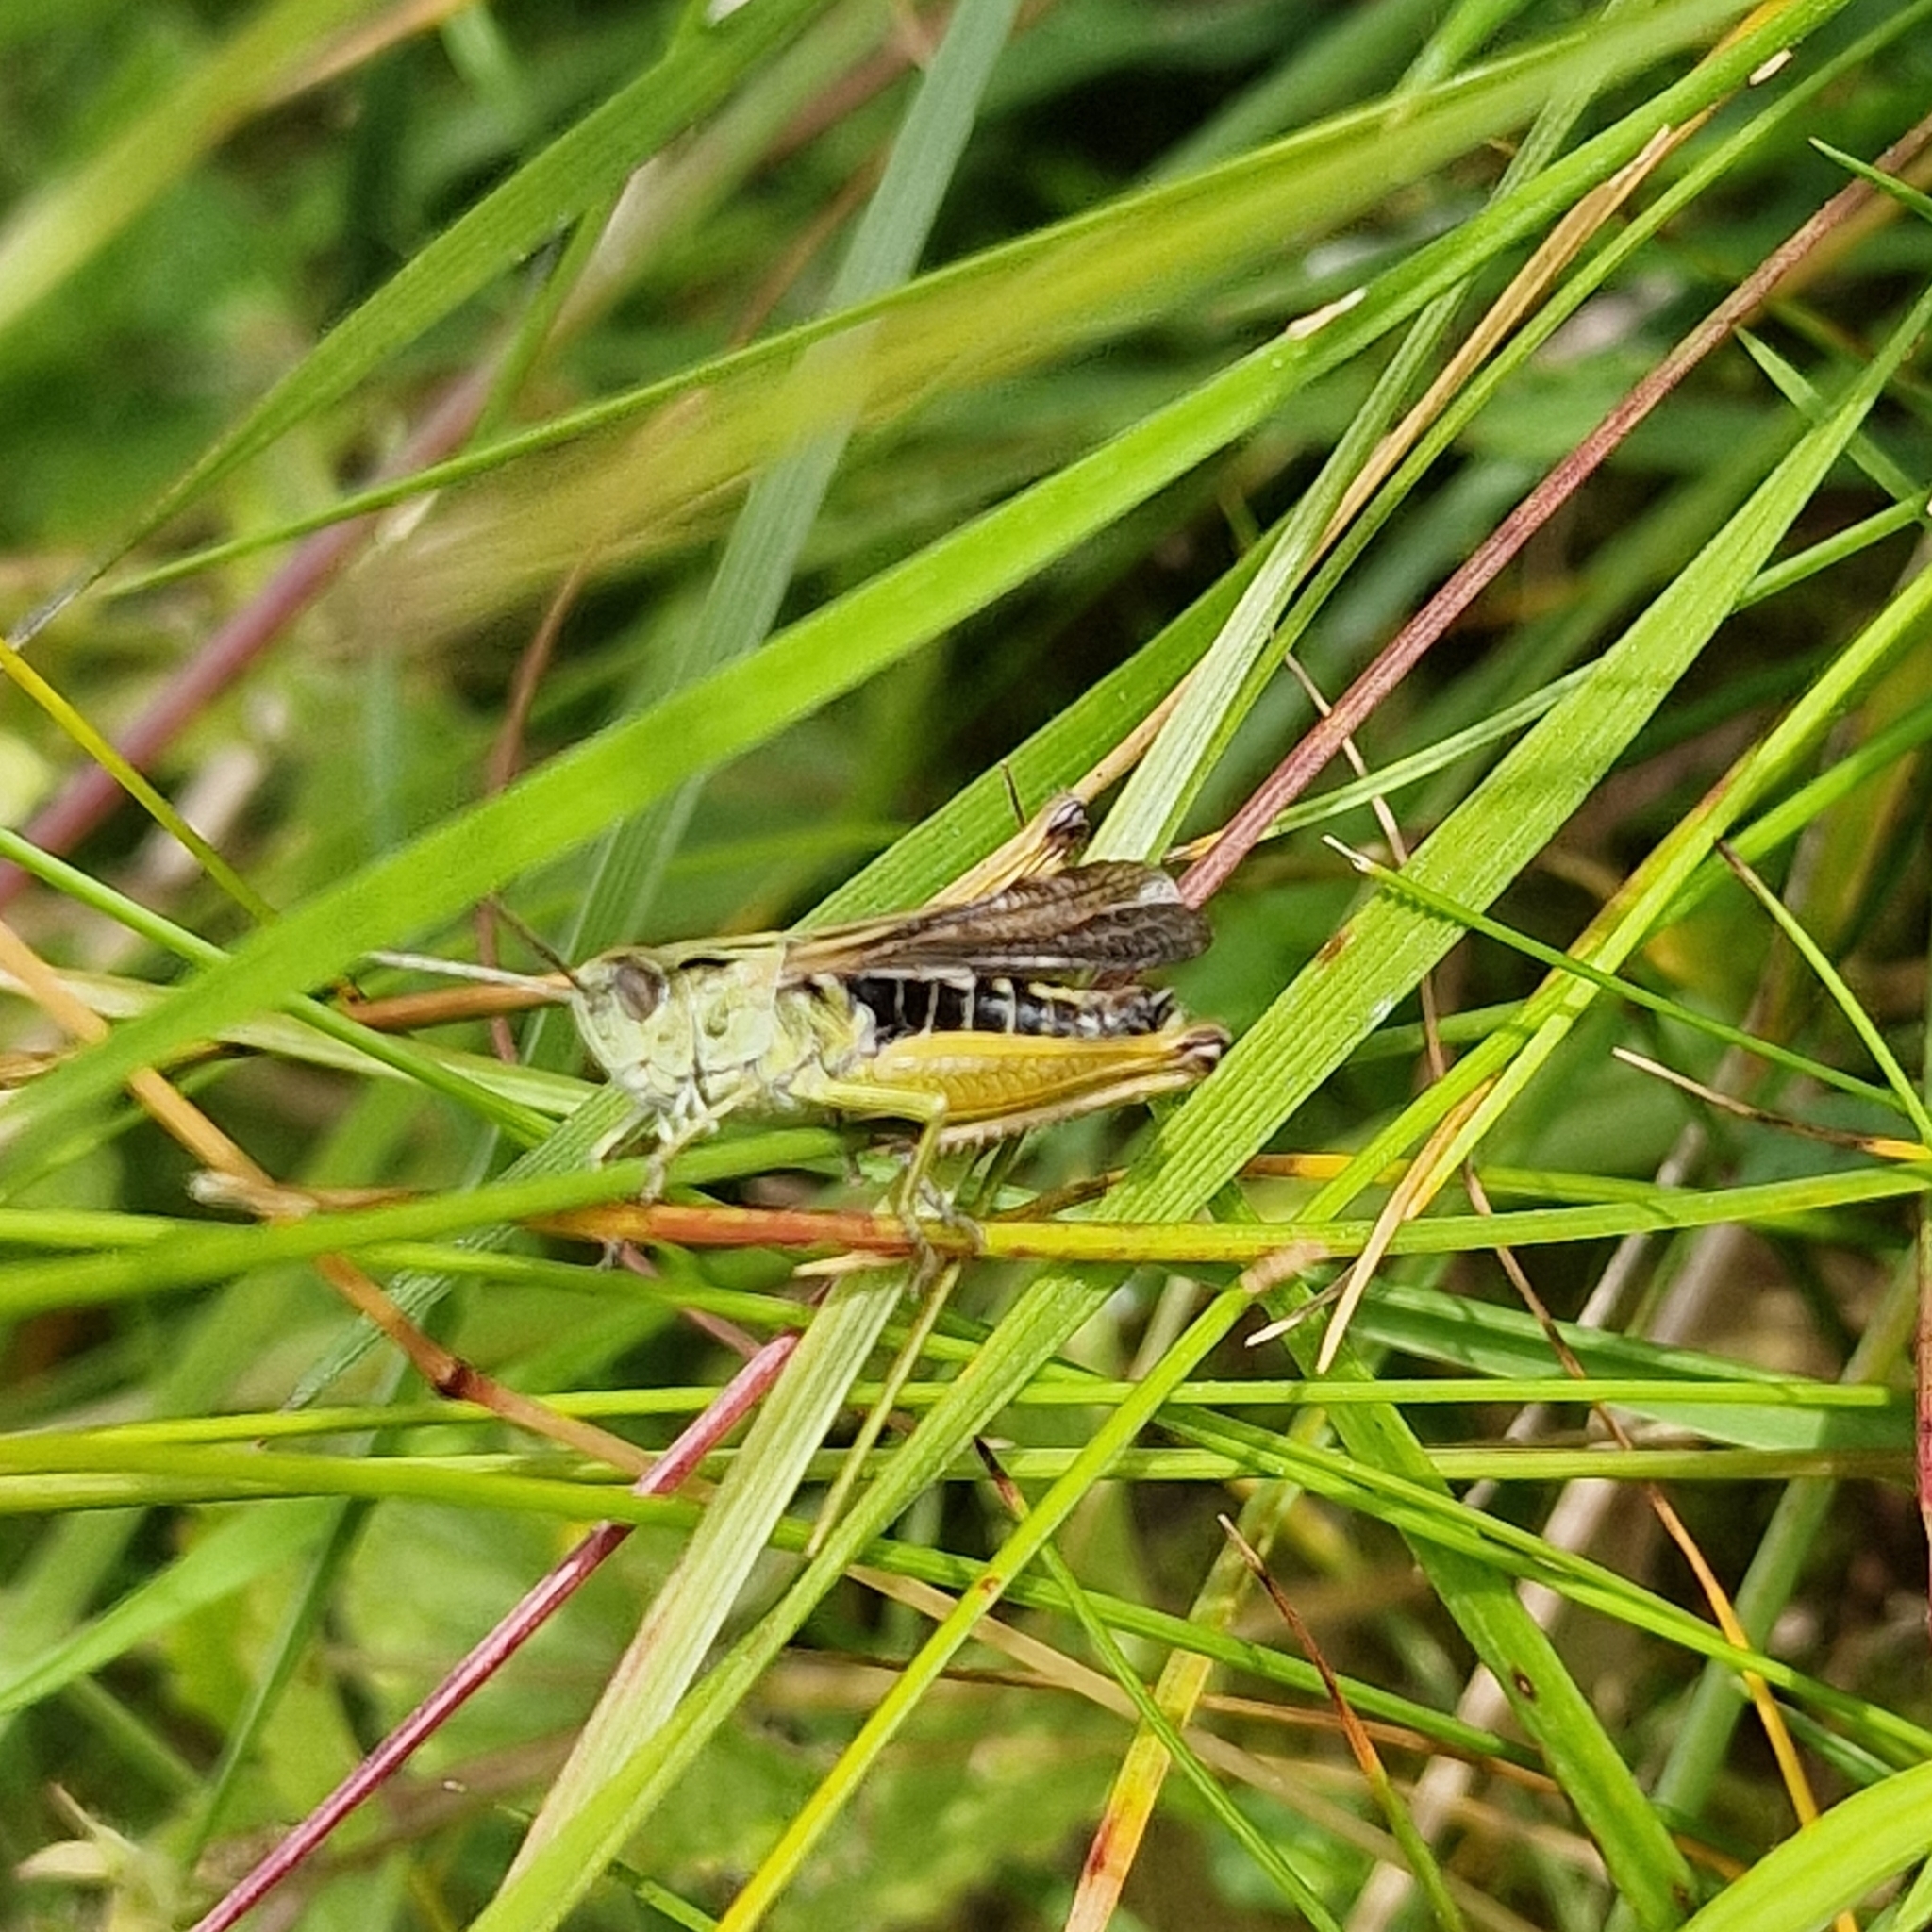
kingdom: Animalia
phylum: Arthropoda
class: Insecta
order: Orthoptera
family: Acrididae
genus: Omocestus
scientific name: Omocestus viridulus
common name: Common green grasshopper
